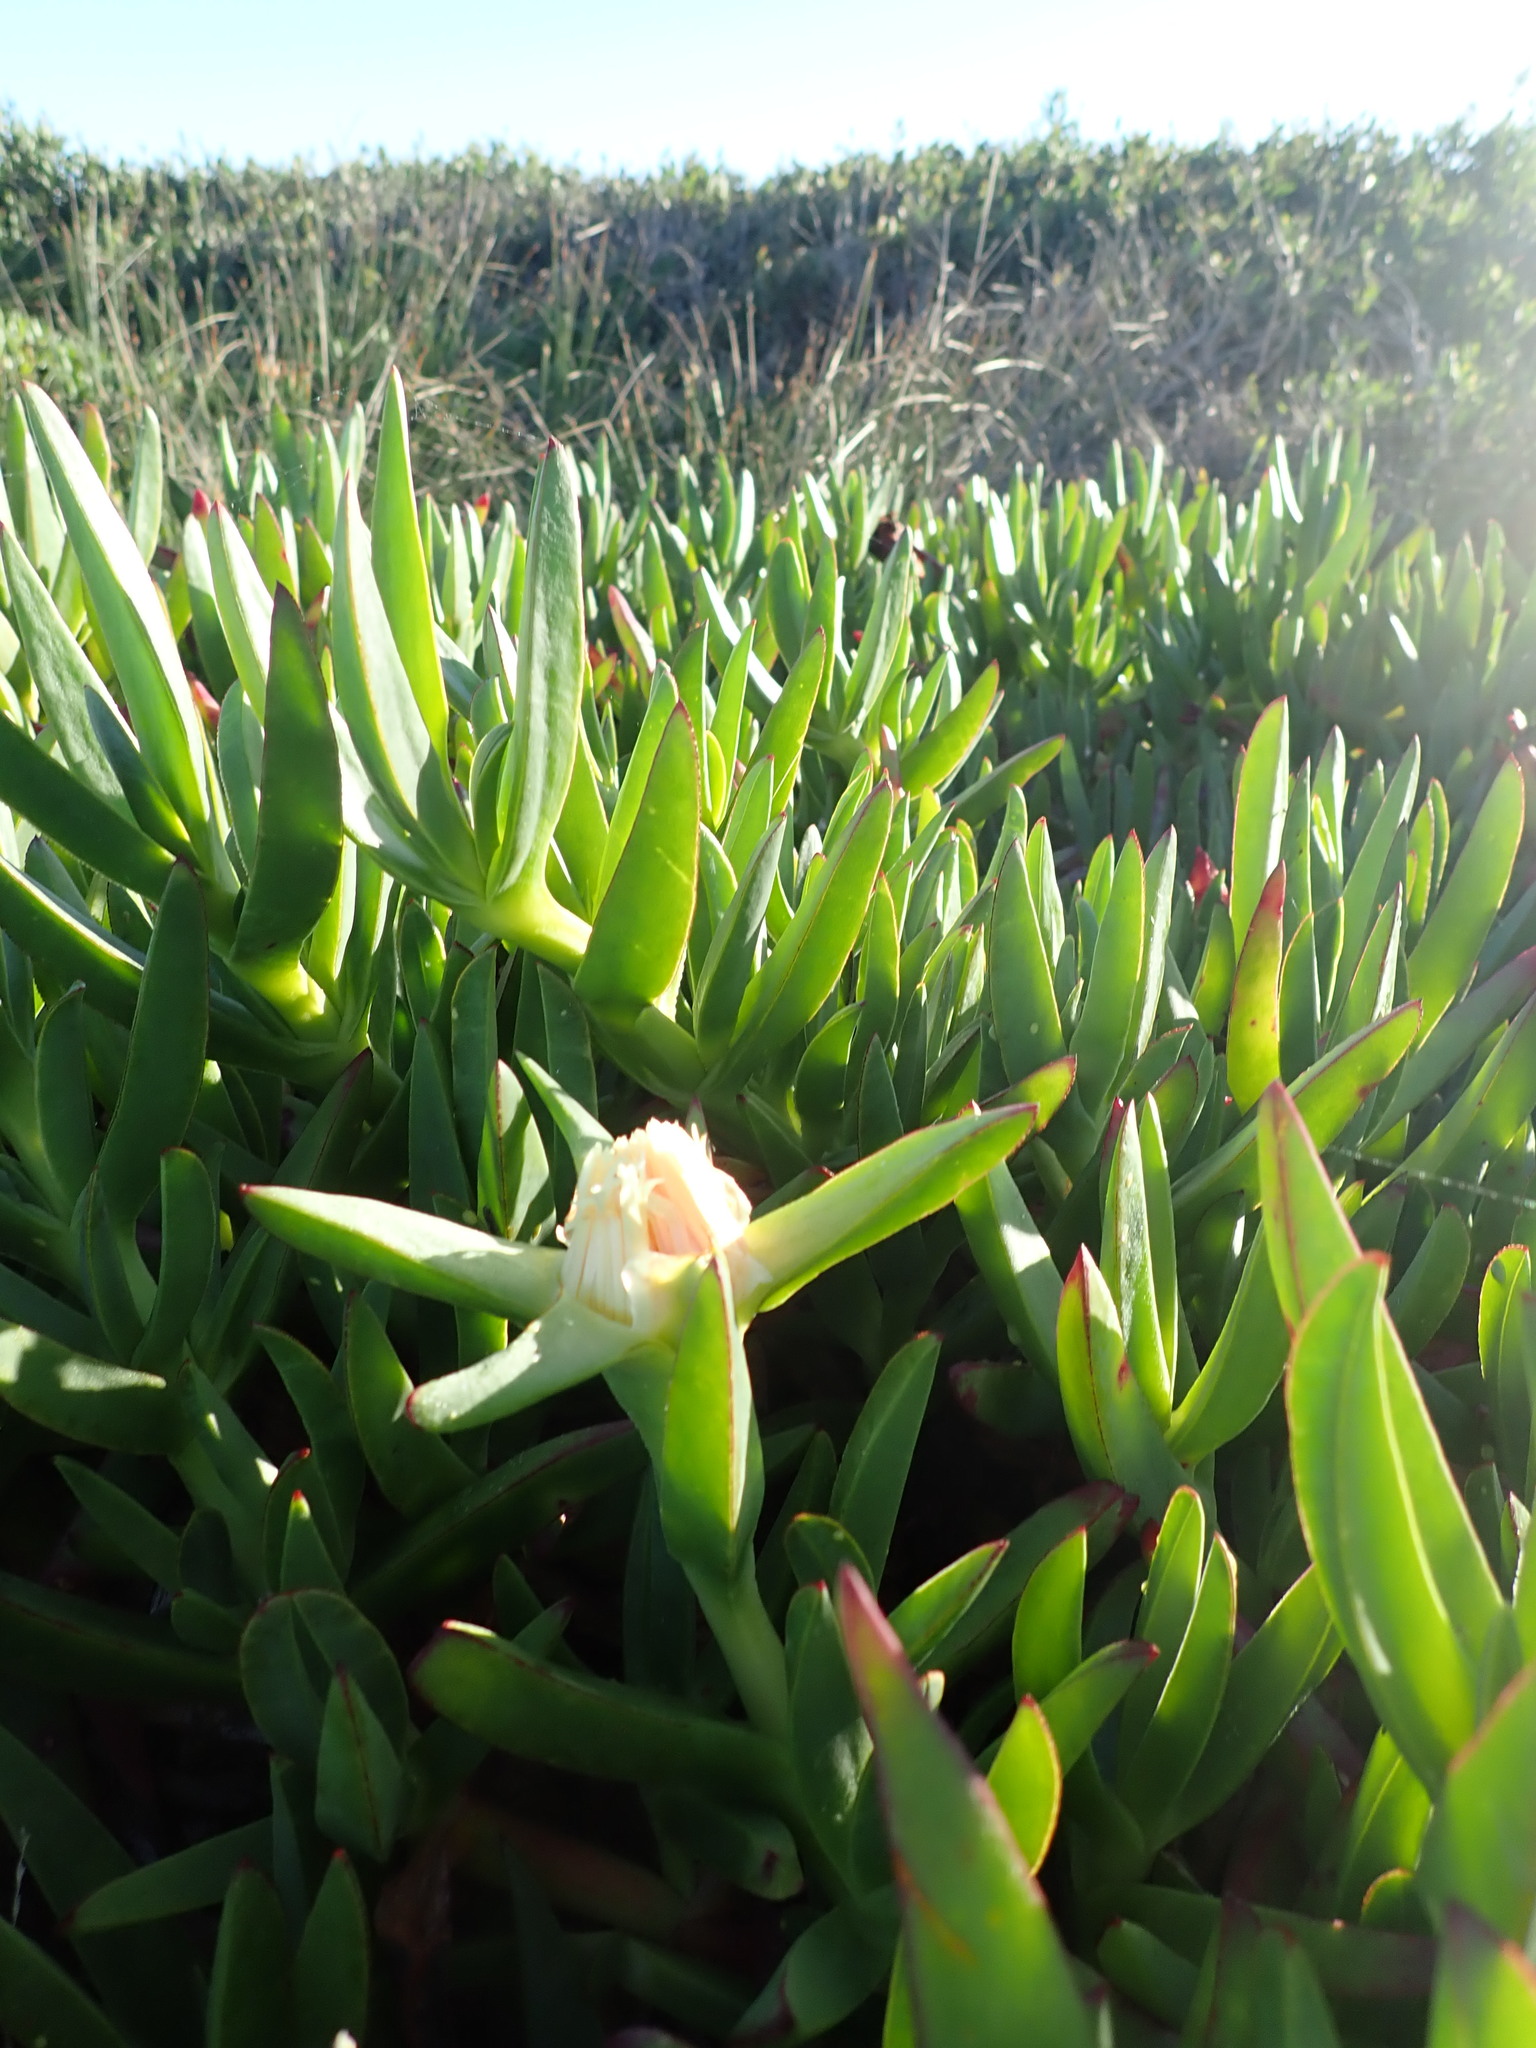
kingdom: Plantae
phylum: Tracheophyta
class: Magnoliopsida
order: Caryophyllales
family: Aizoaceae
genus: Carpobrotus
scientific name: Carpobrotus edulis
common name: Hottentot-fig
